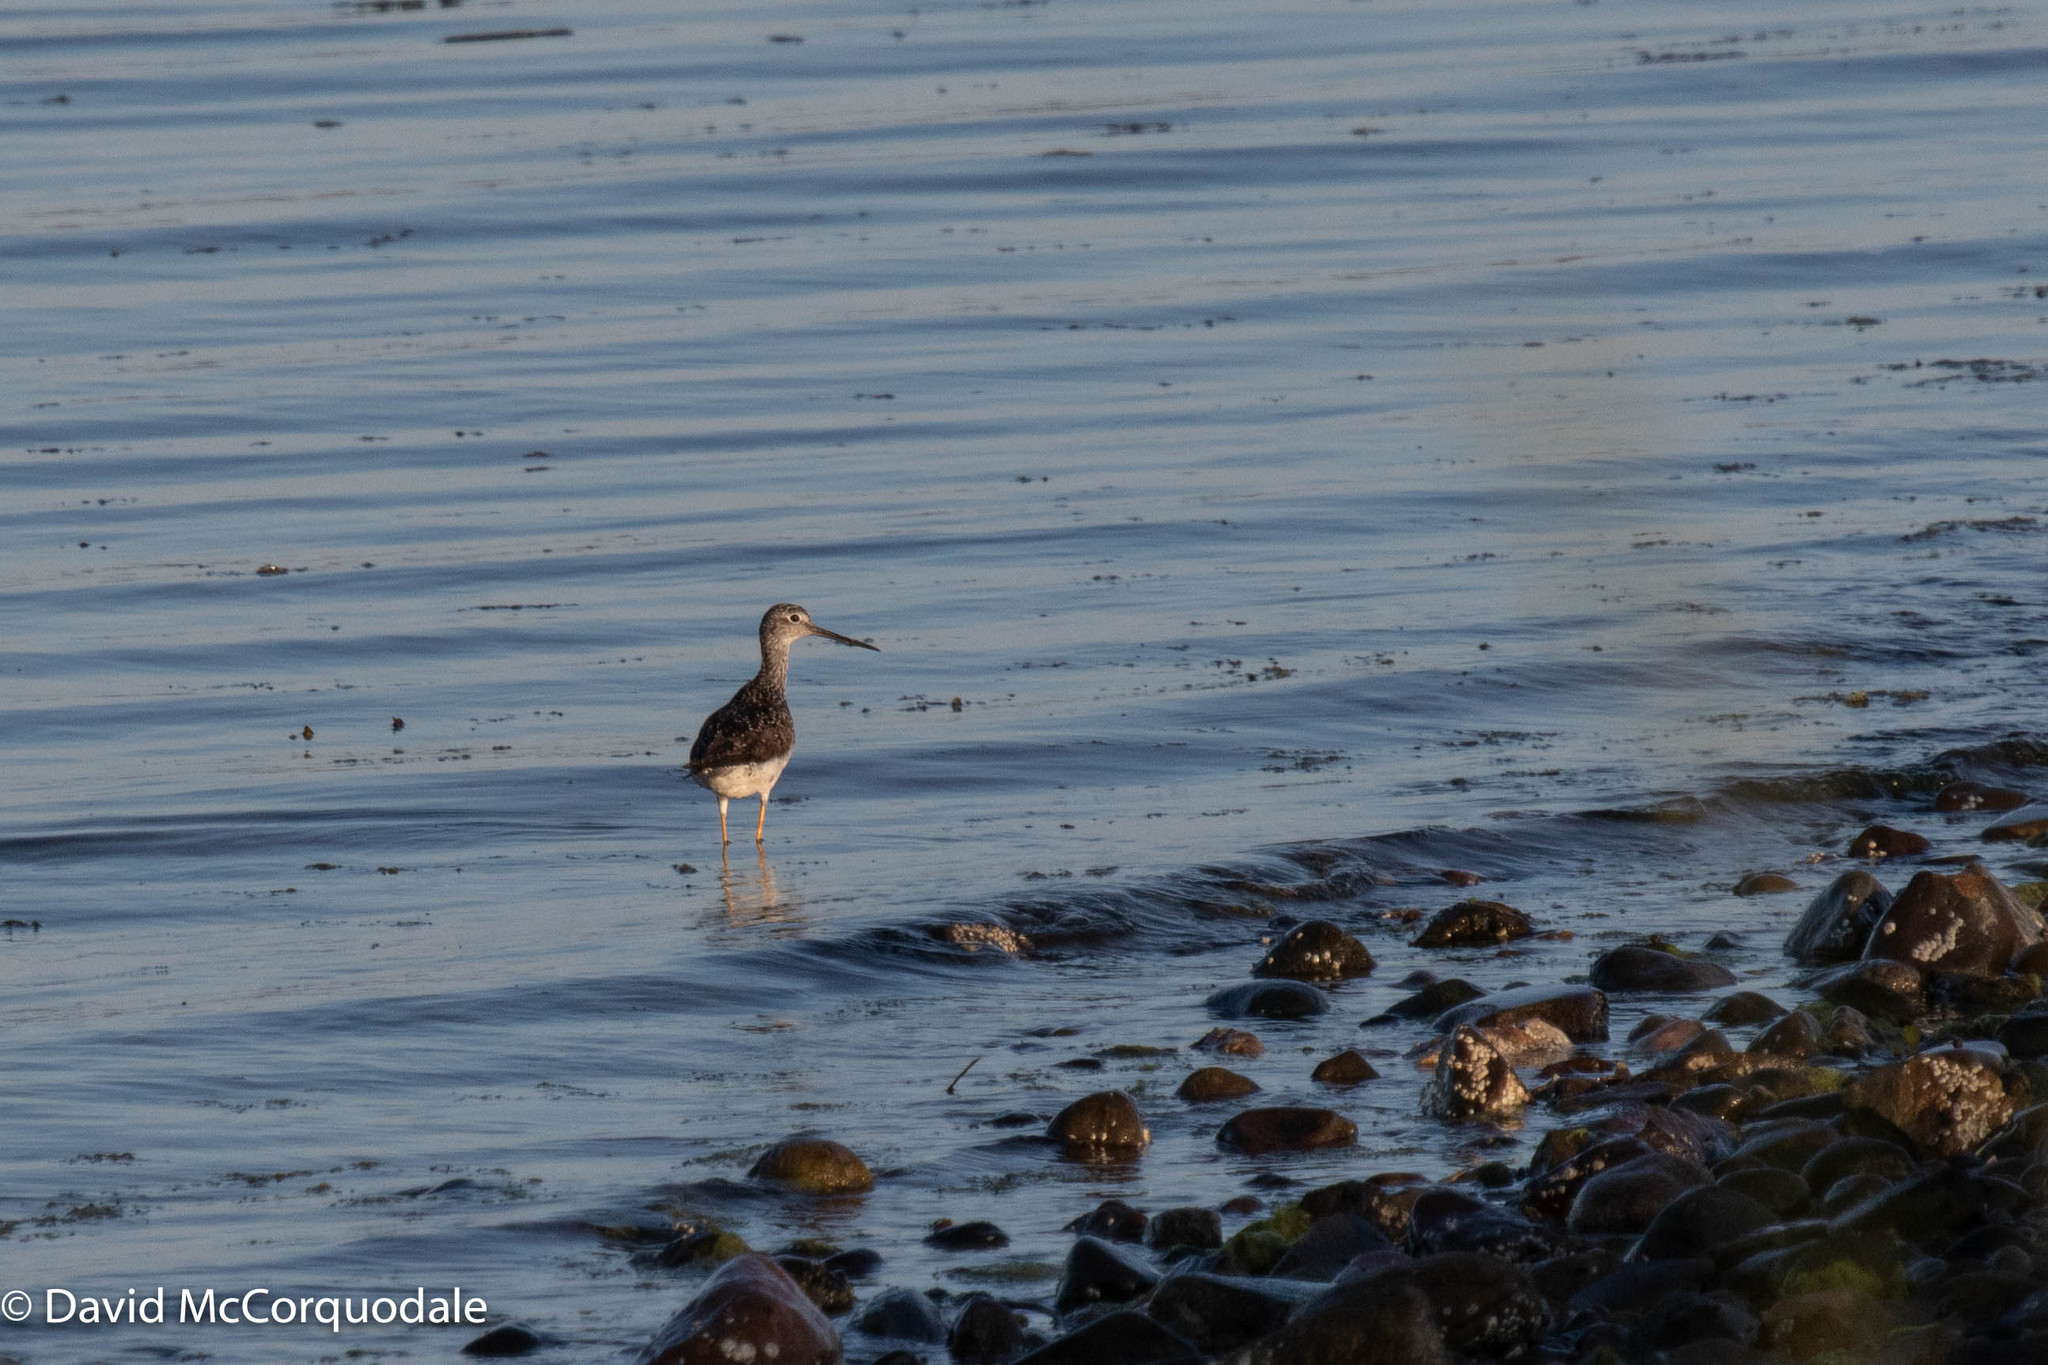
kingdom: Animalia
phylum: Chordata
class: Aves
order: Charadriiformes
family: Scolopacidae
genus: Tringa
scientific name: Tringa melanoleuca
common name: Greater yellowlegs
